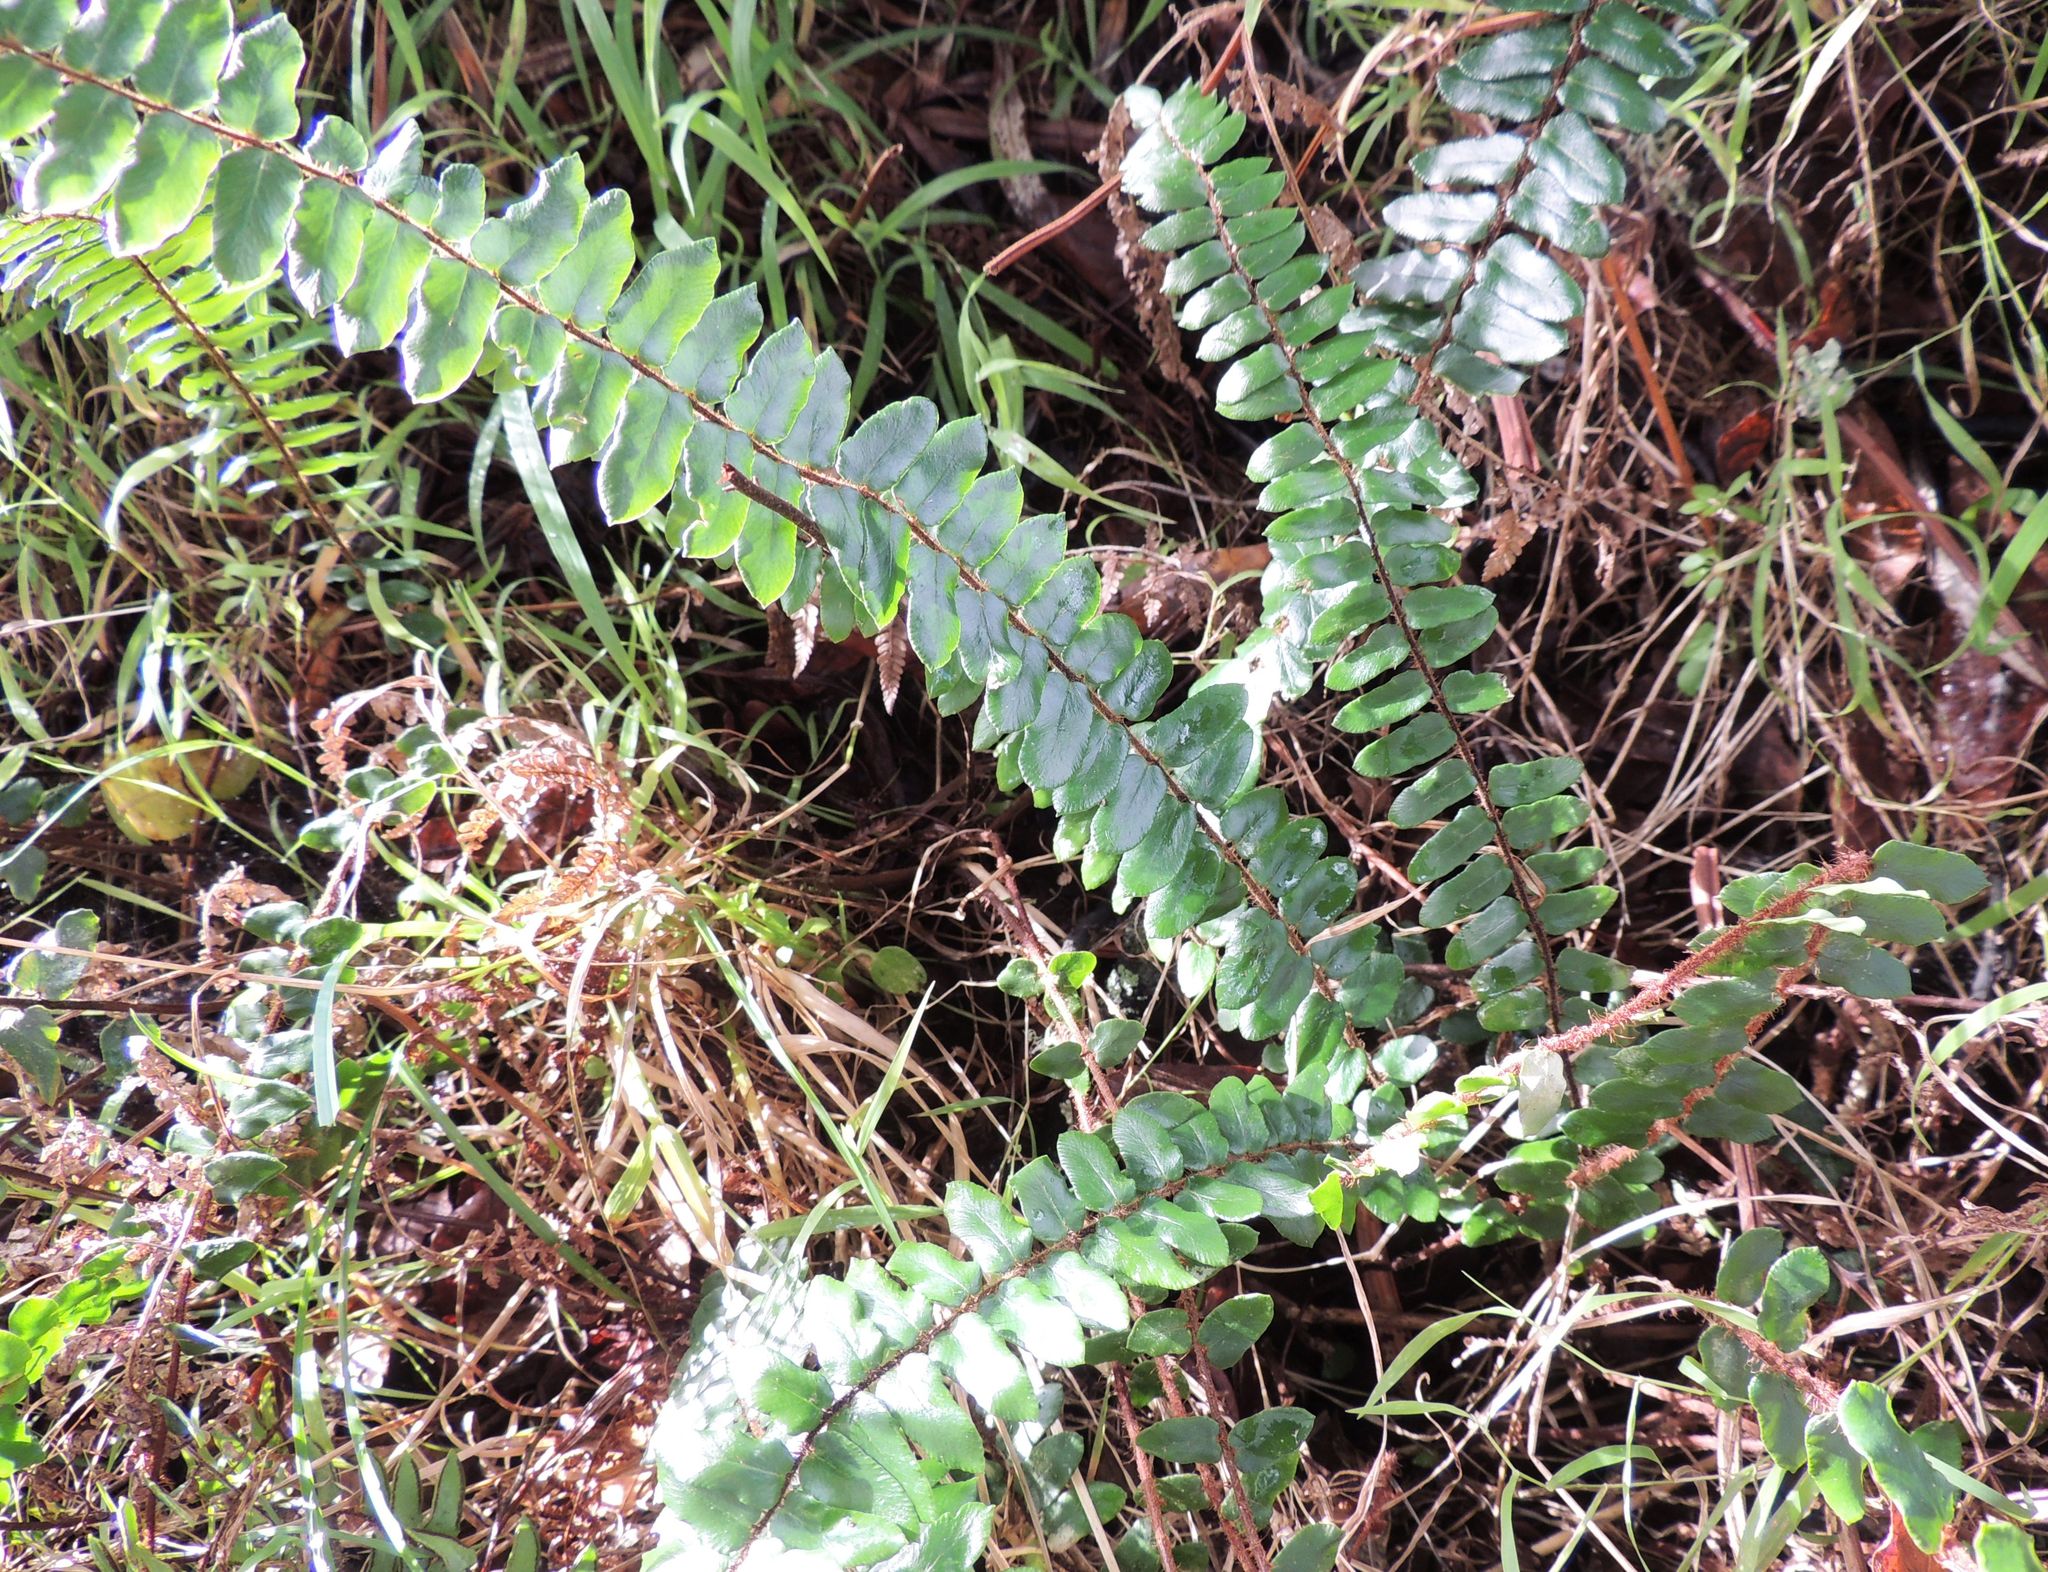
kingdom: Plantae
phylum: Tracheophyta
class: Polypodiopsida
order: Polypodiales
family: Pteridaceae
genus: Pellaea
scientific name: Pellaea rotundifolia
